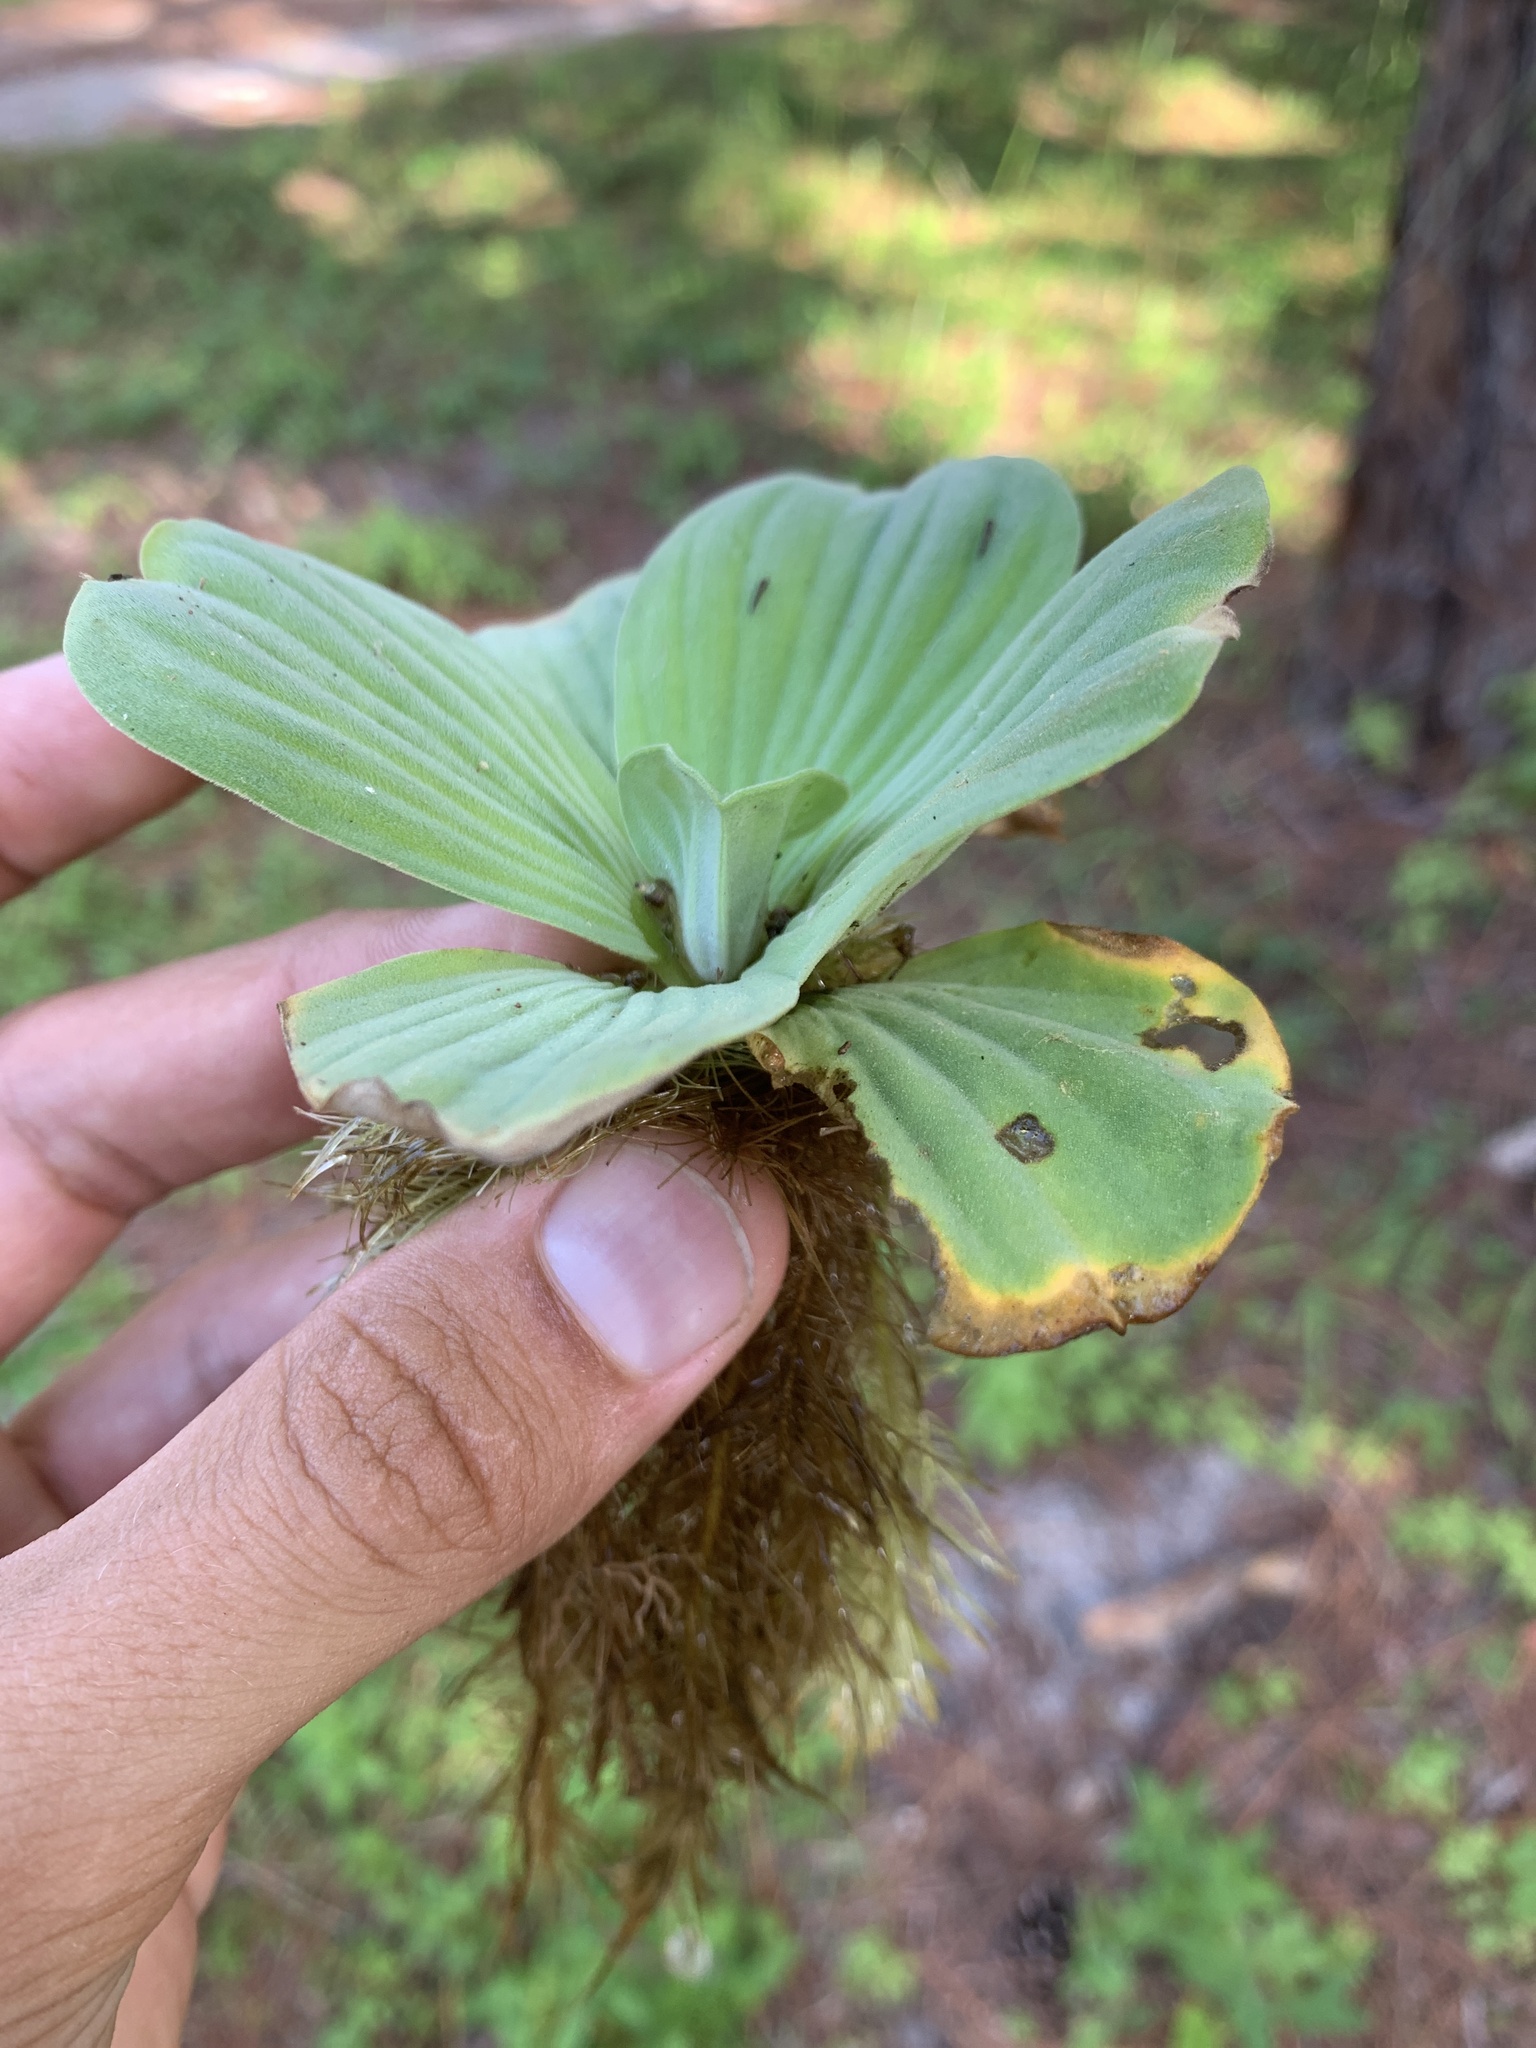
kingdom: Plantae
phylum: Tracheophyta
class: Liliopsida
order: Alismatales
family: Araceae
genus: Pistia
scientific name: Pistia stratiotes
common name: Water lettuce
